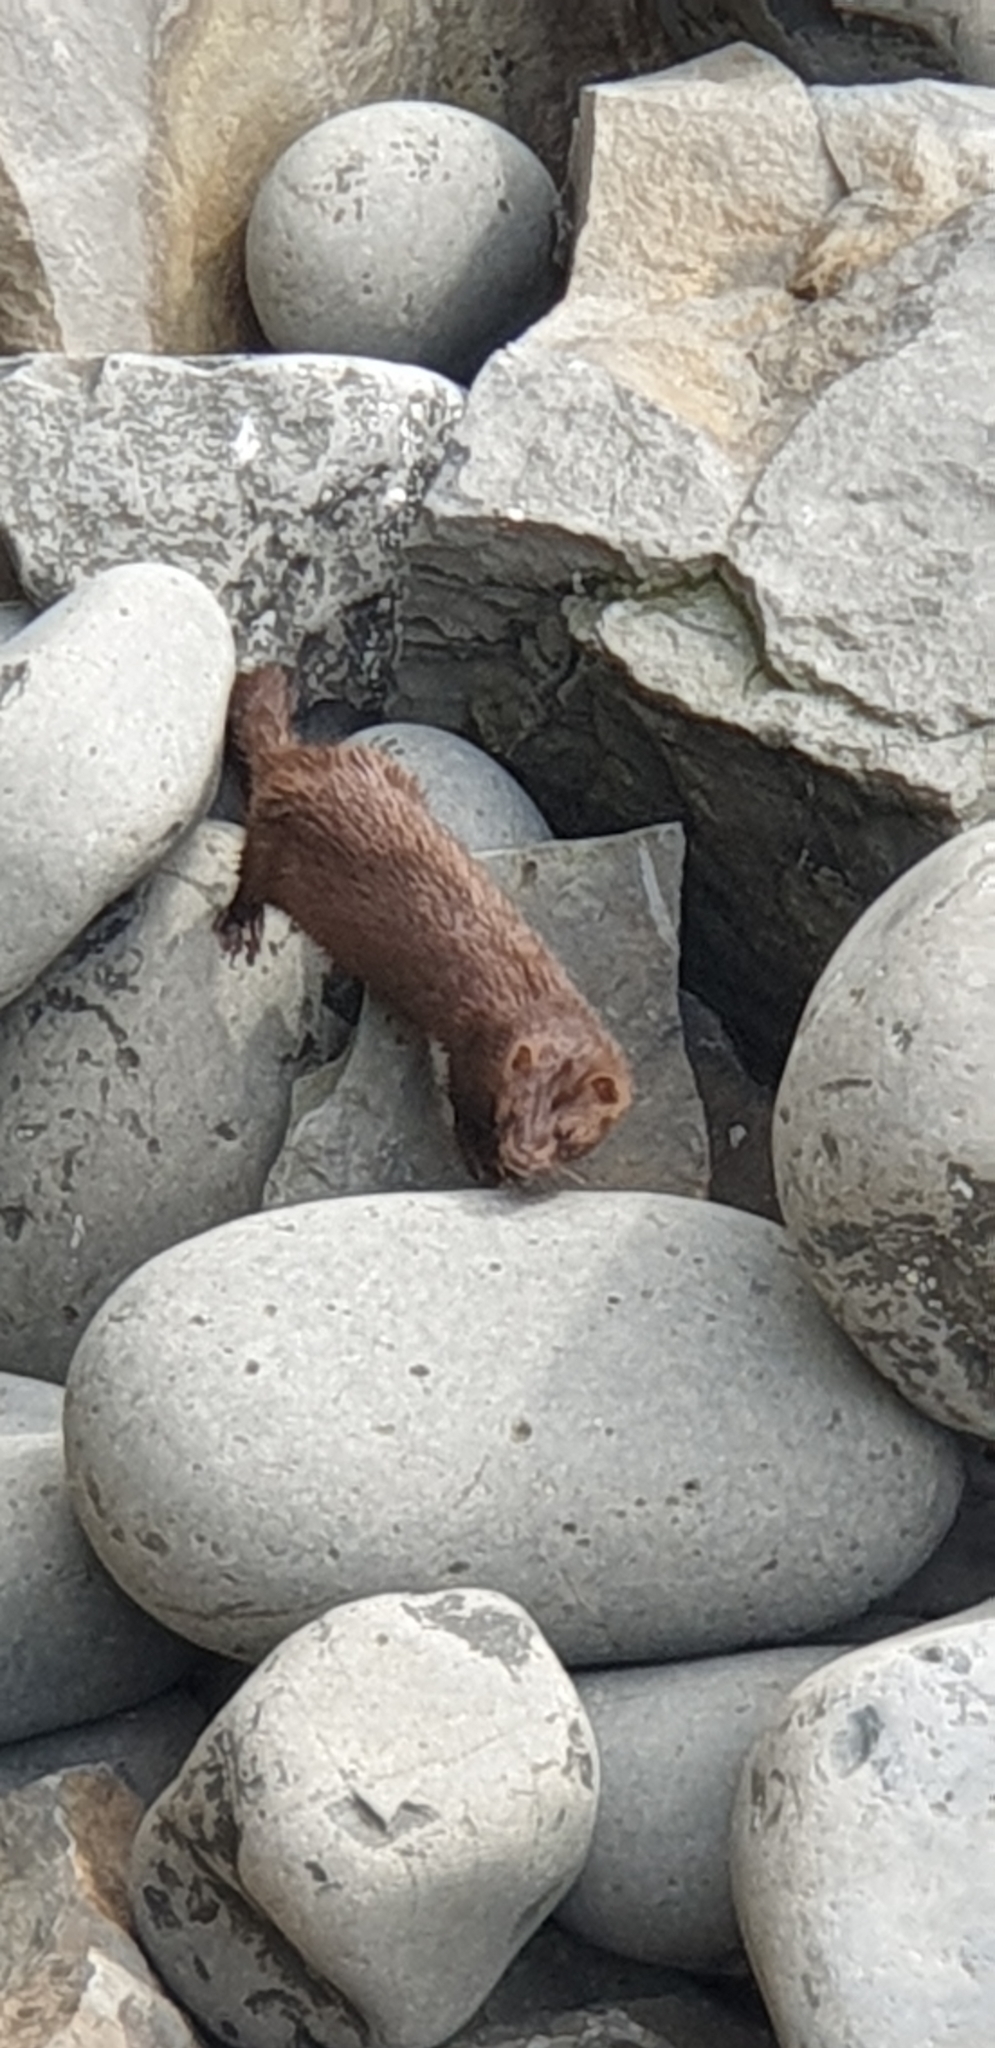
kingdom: Animalia
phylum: Chordata
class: Mammalia
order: Carnivora
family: Mustelidae
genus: Mustela
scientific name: Mustela
